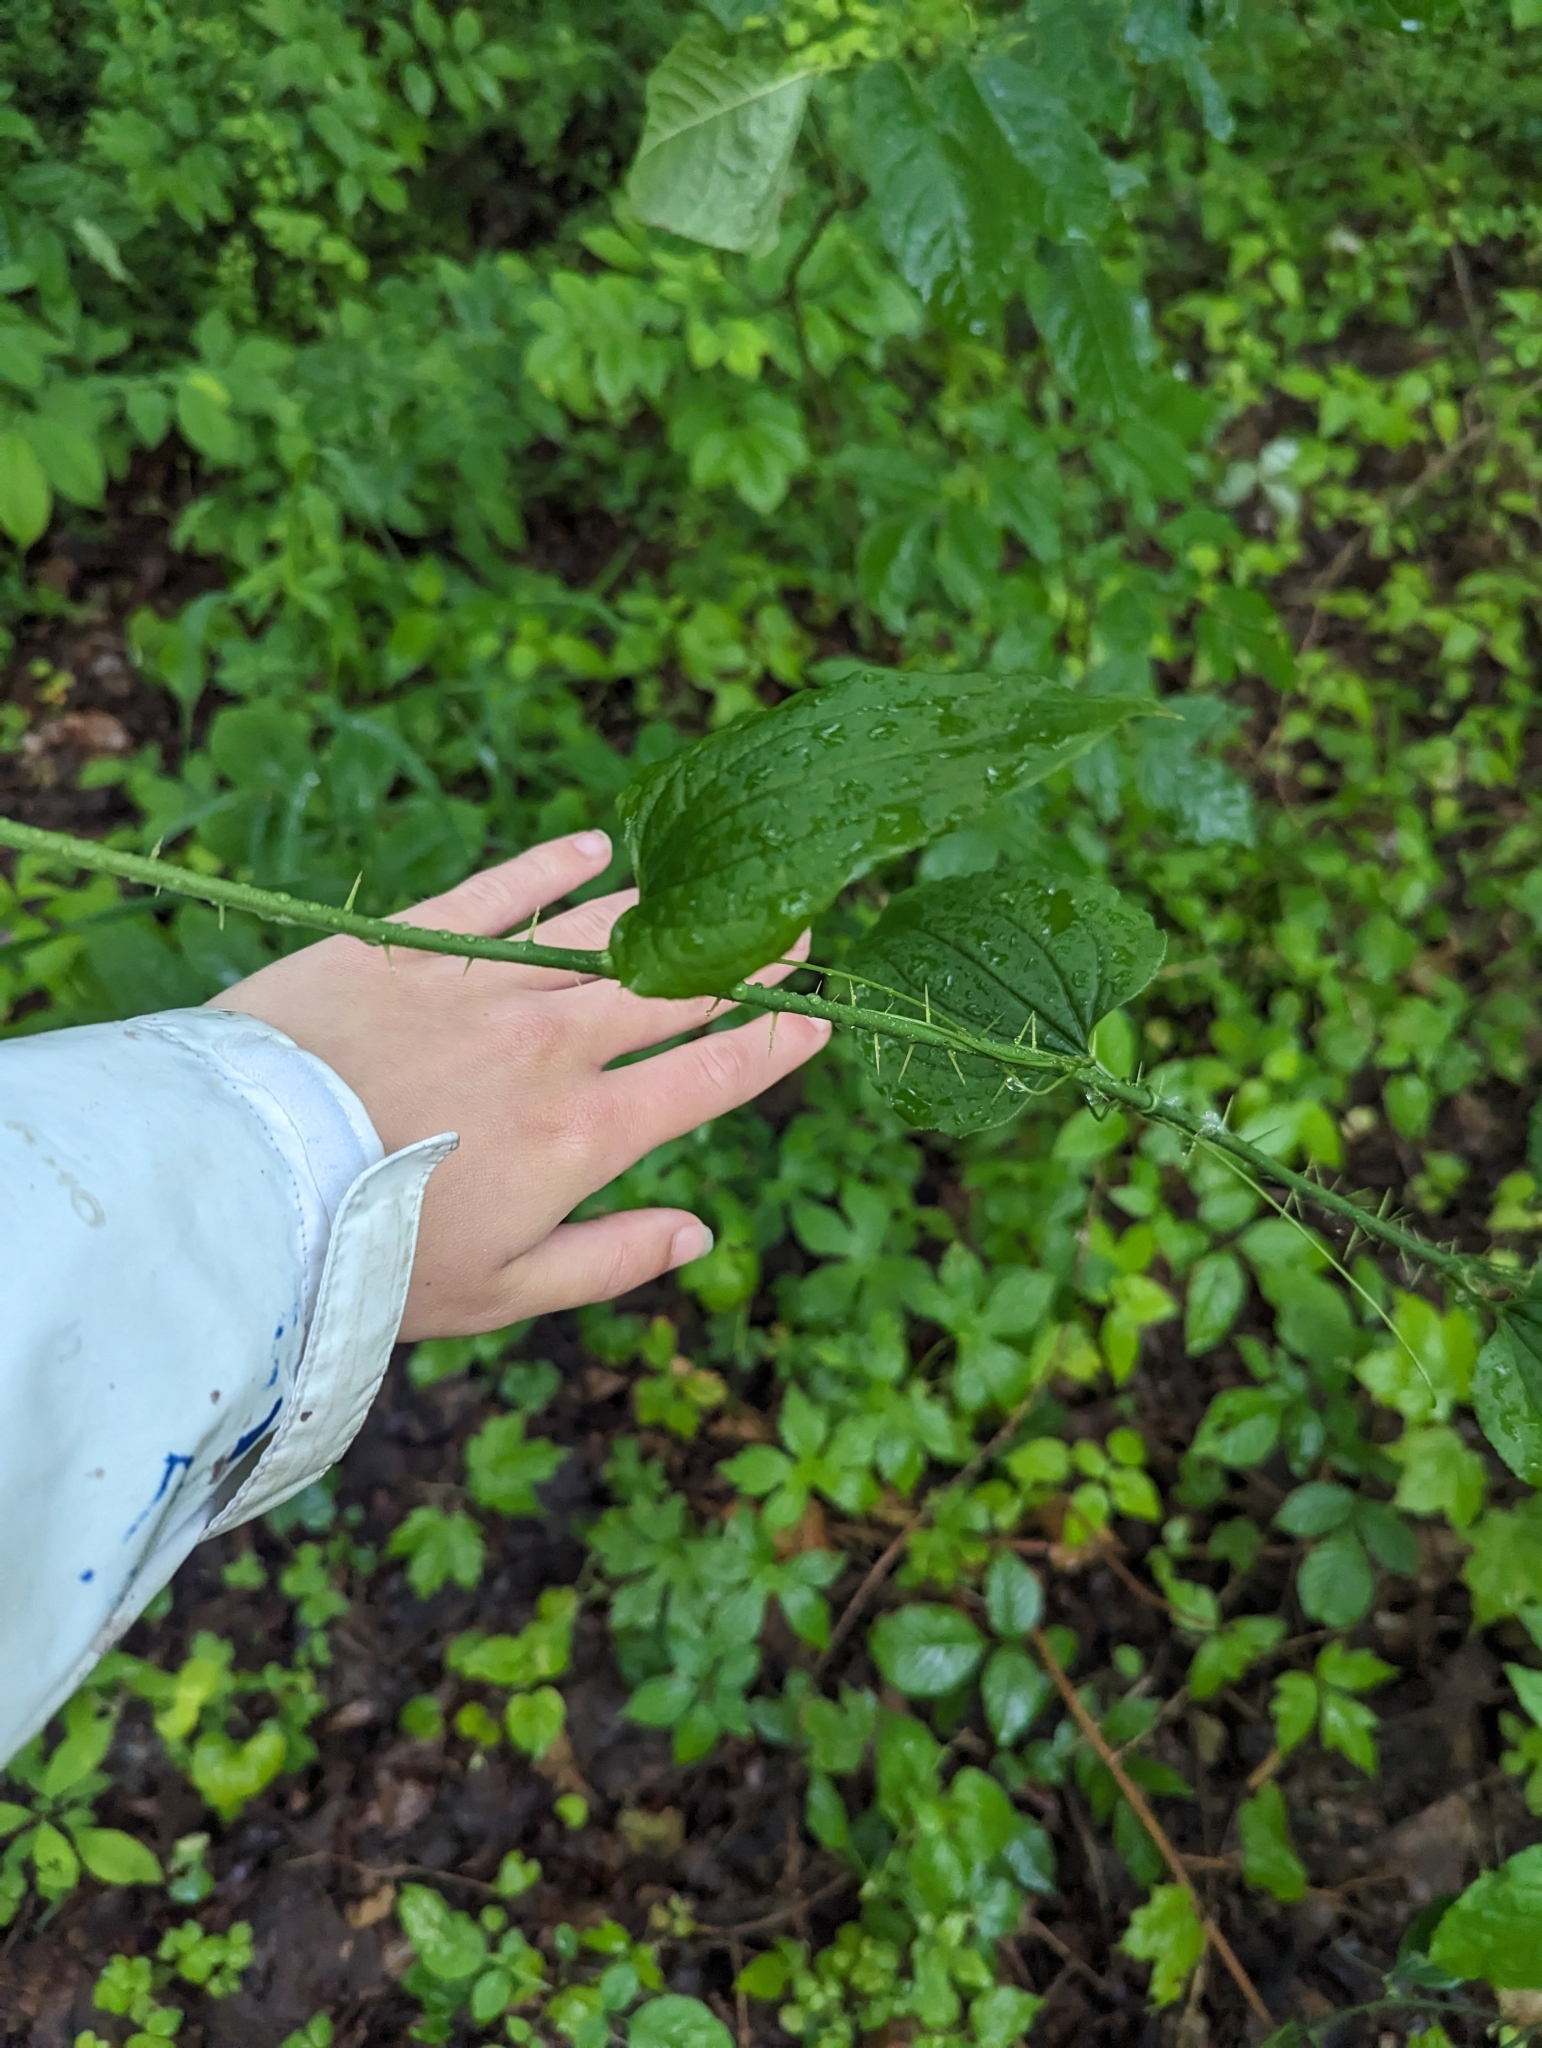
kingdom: Plantae
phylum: Tracheophyta
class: Liliopsida
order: Liliales
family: Smilacaceae
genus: Smilax
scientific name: Smilax tamnoides
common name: Hellfetter
